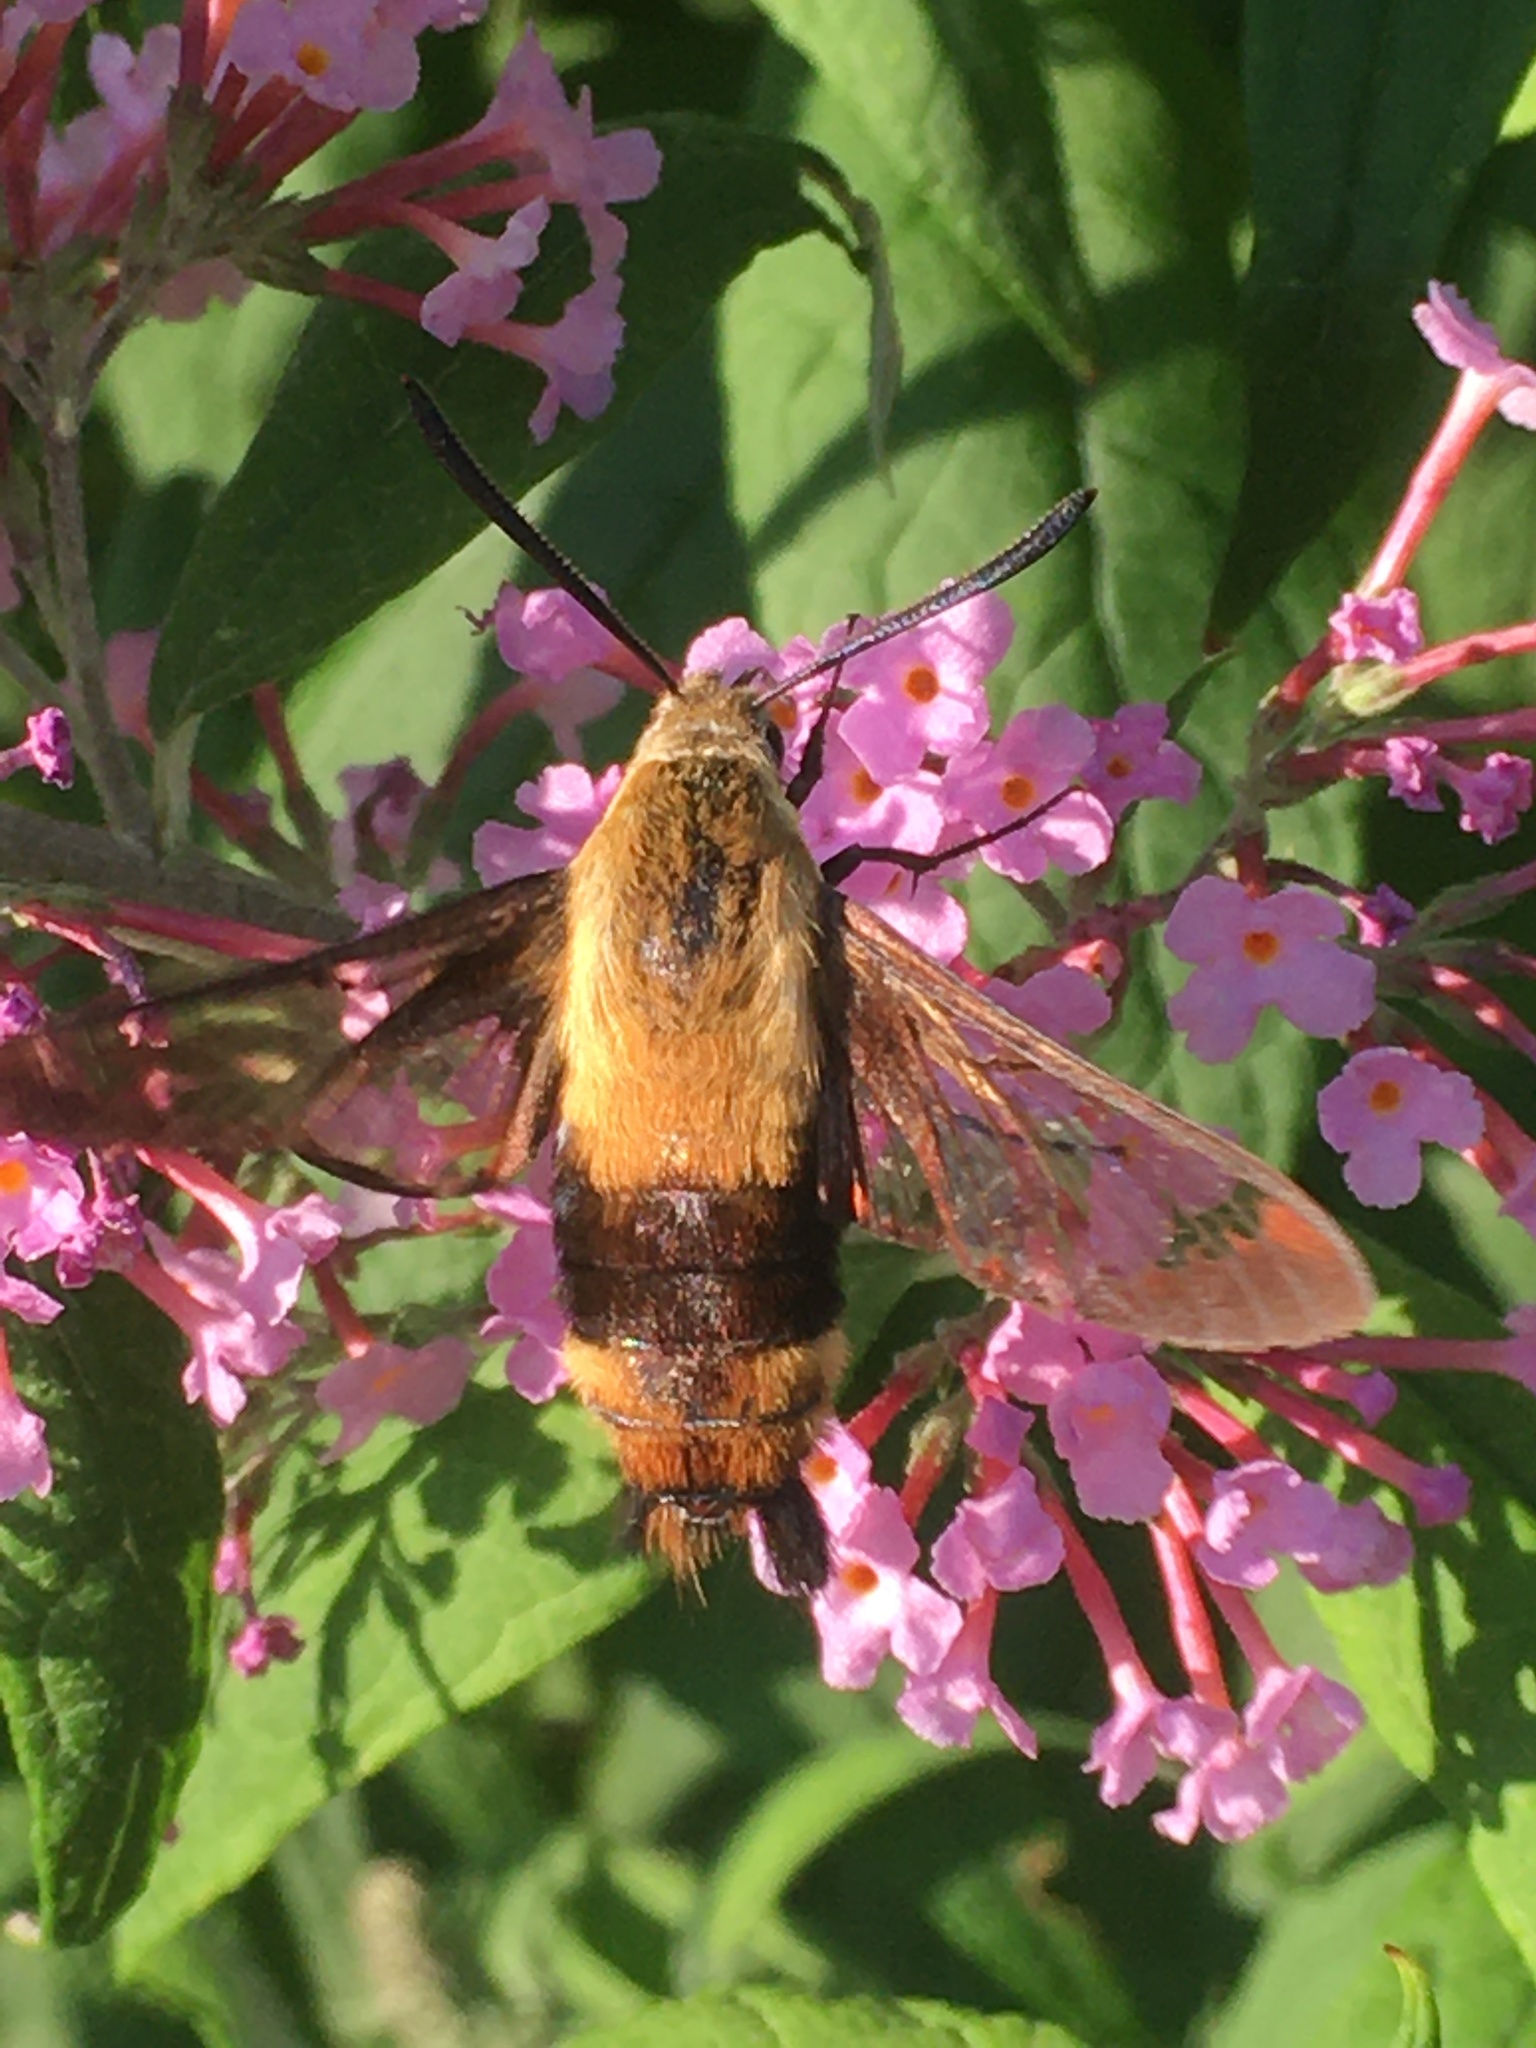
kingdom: Animalia
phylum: Arthropoda
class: Insecta
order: Lepidoptera
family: Sphingidae
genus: Hemaris
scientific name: Hemaris diffinis
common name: Bumblebee moth
